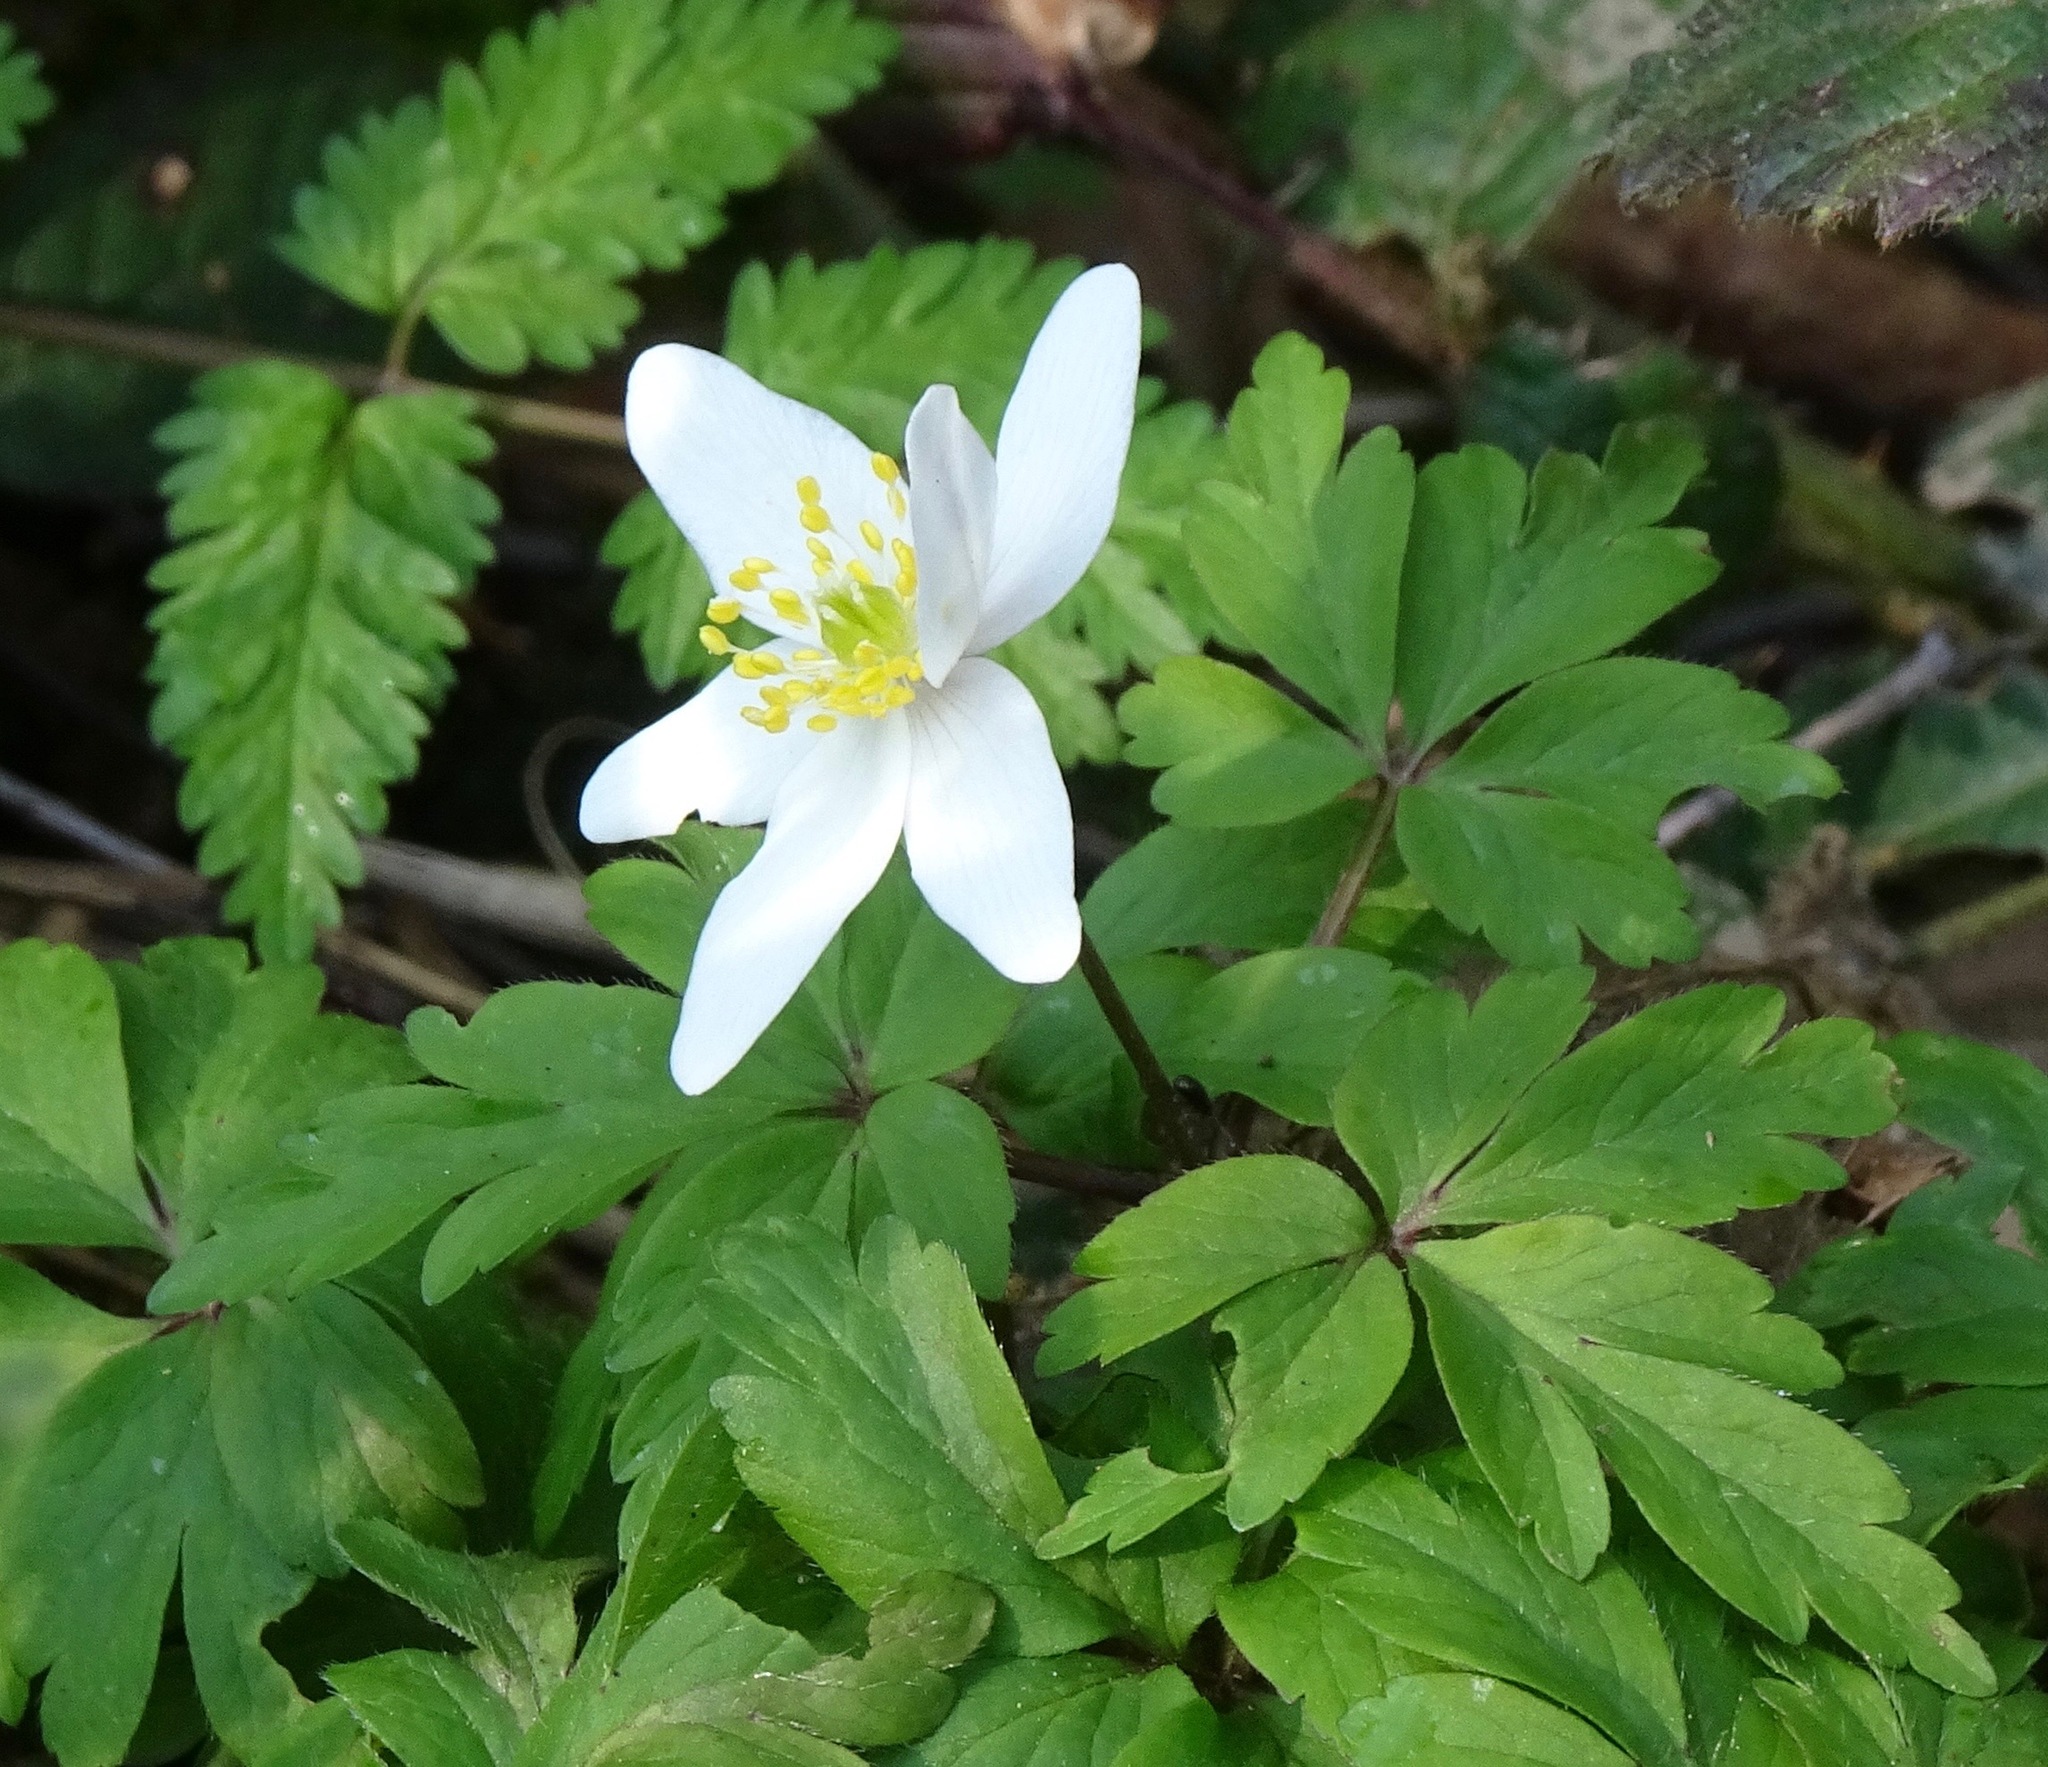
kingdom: Plantae
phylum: Tracheophyta
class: Magnoliopsida
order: Ranunculales
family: Ranunculaceae
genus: Anemone
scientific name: Anemone nemorosa
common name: Wood anemone
